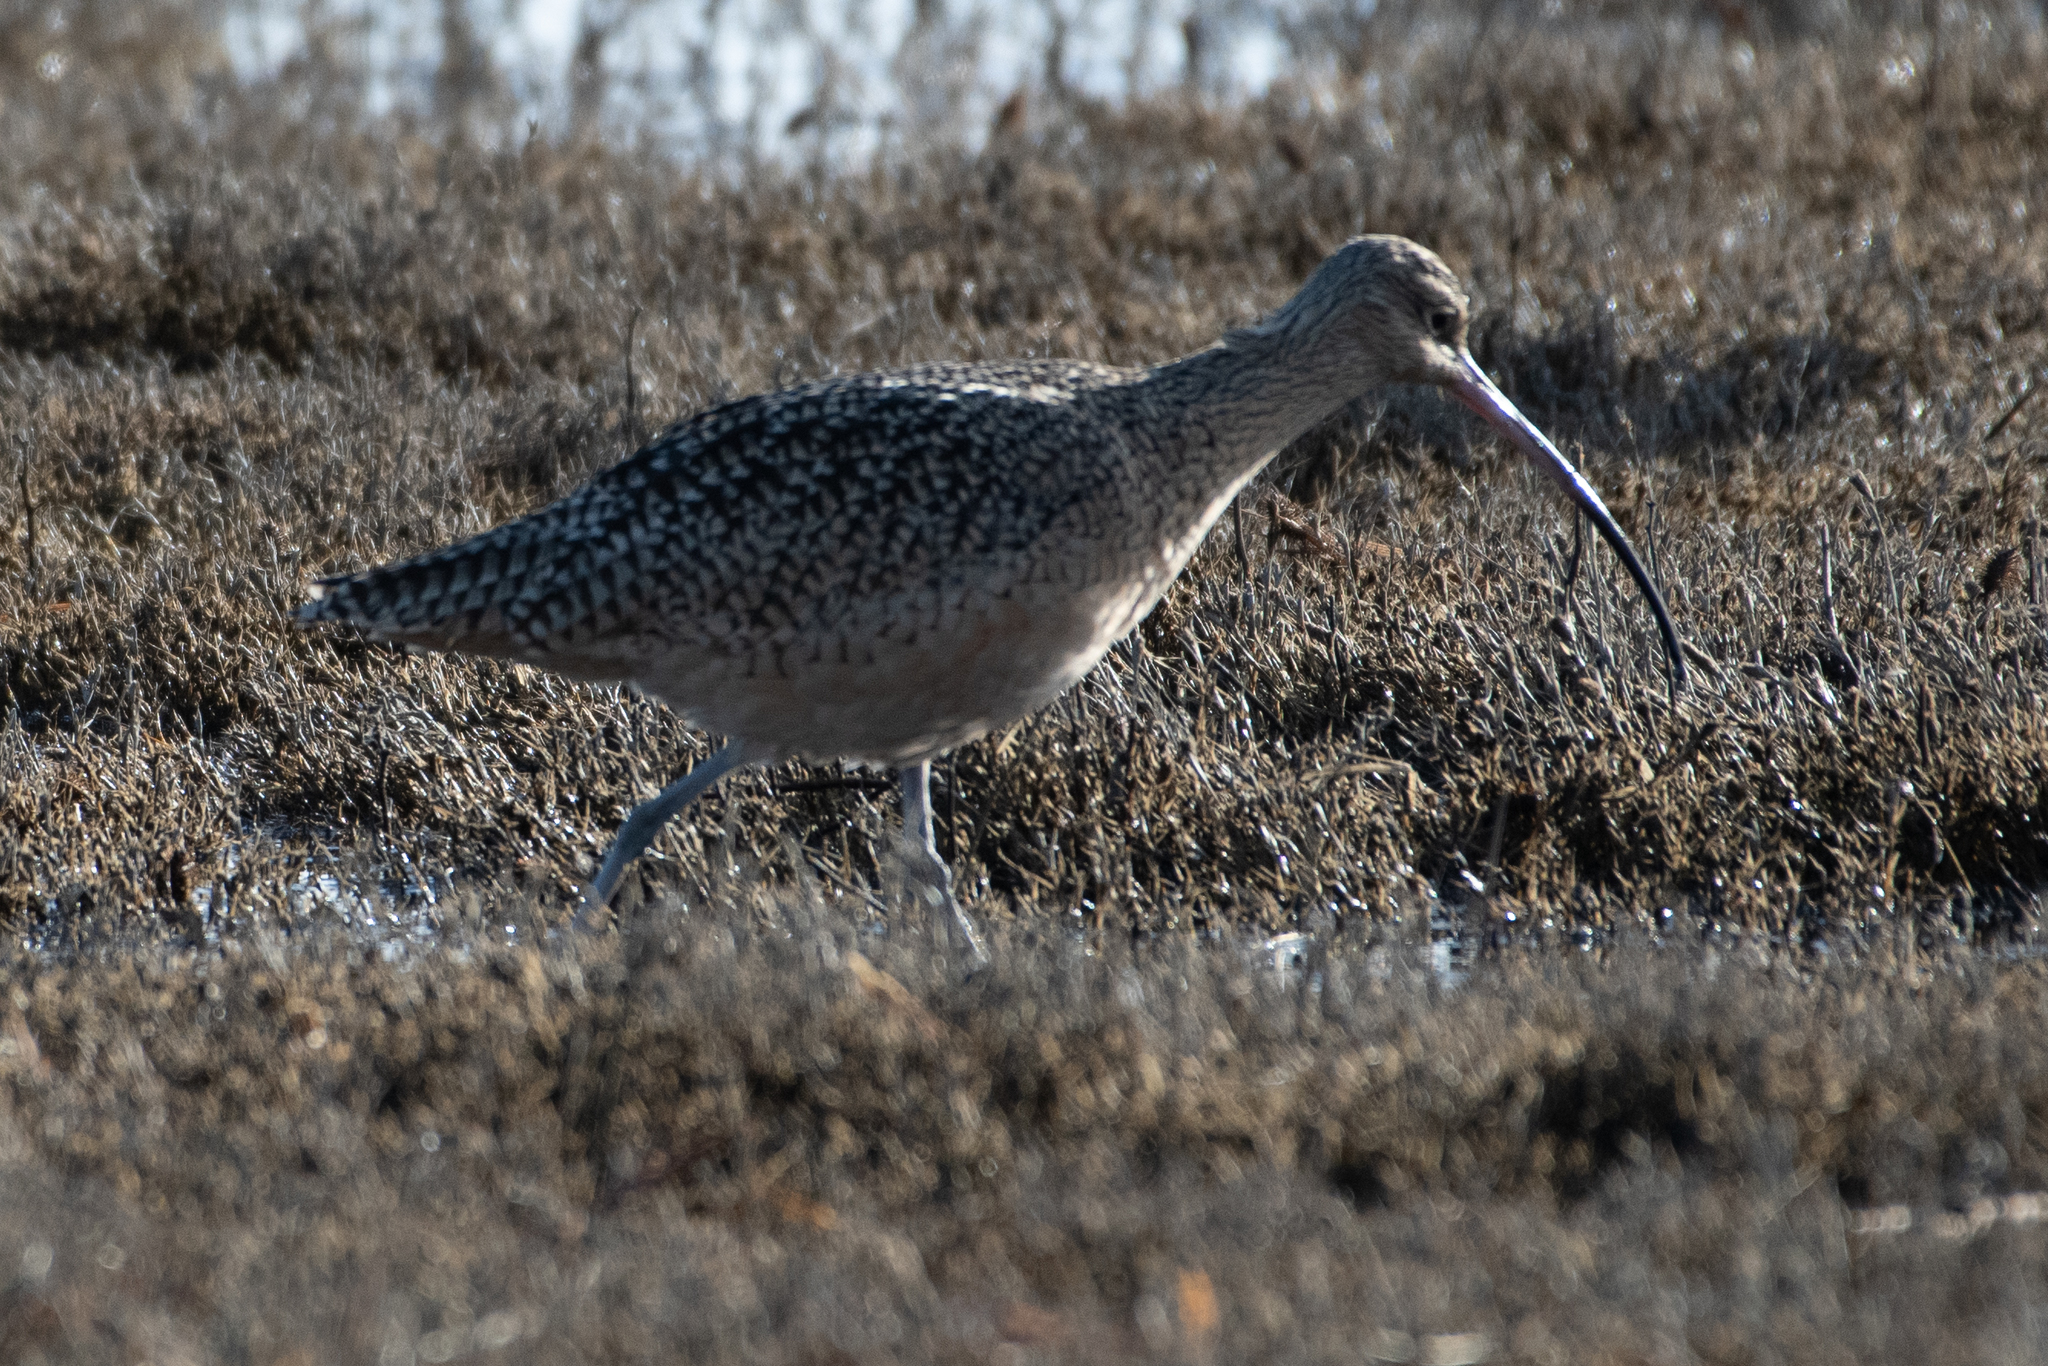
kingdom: Animalia
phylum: Chordata
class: Aves
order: Charadriiformes
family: Scolopacidae
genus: Numenius
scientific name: Numenius americanus
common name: Long-billed curlew
